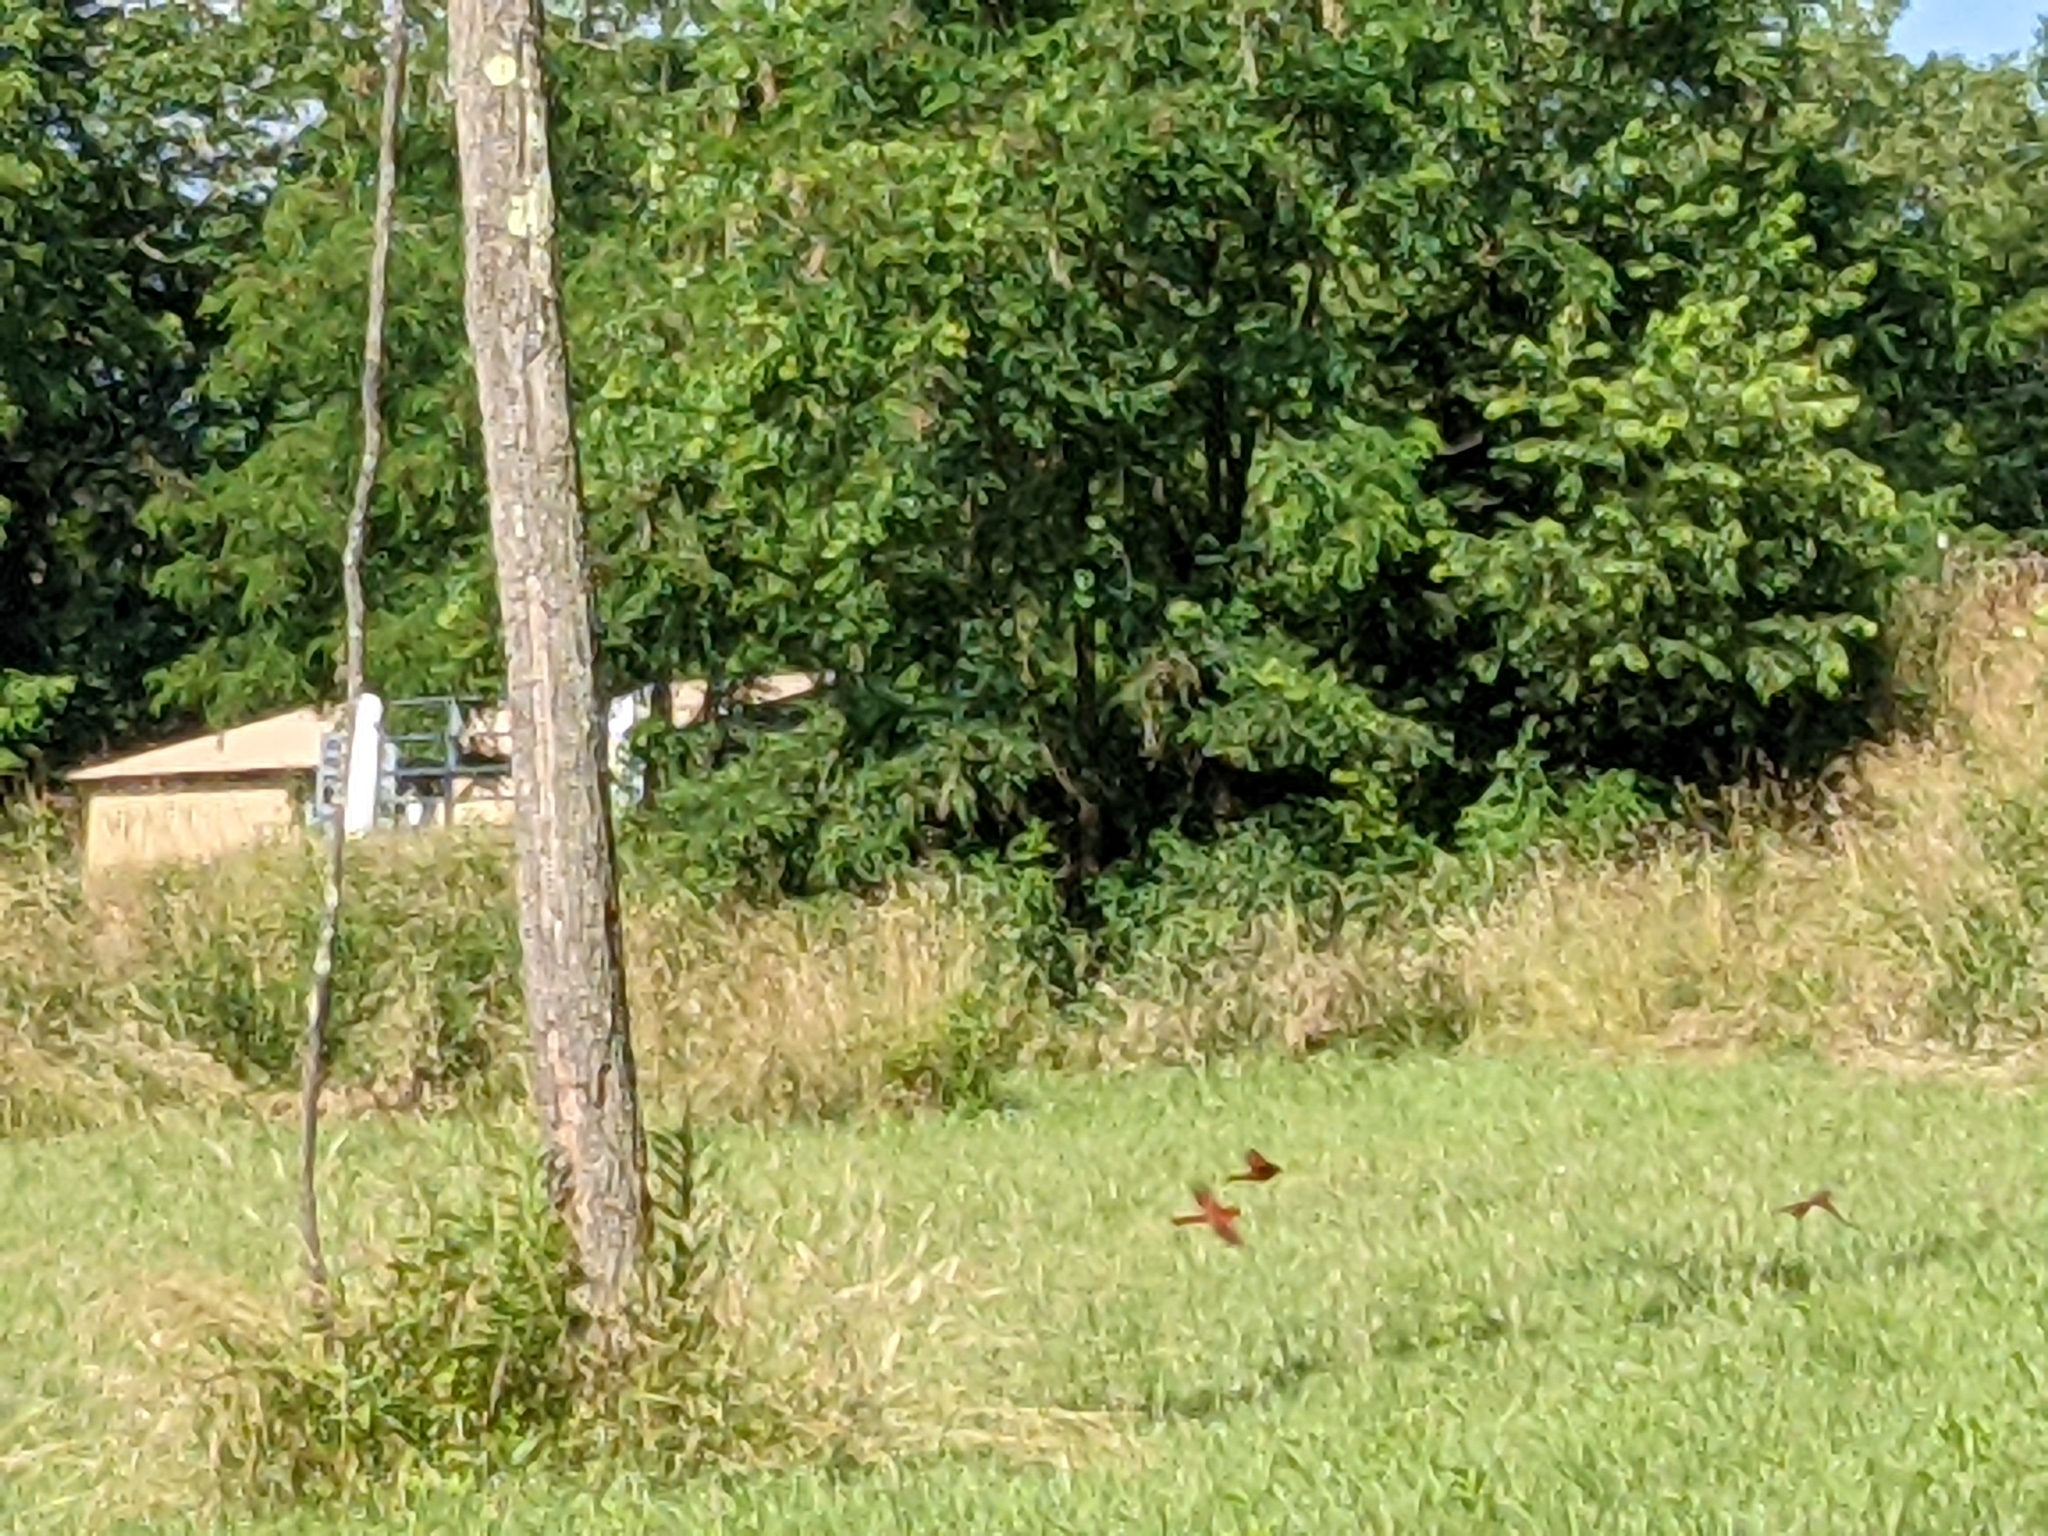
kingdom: Animalia
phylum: Chordata
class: Aves
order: Passeriformes
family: Cardinalidae
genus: Cardinalis
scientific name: Cardinalis cardinalis
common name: Northern cardinal
